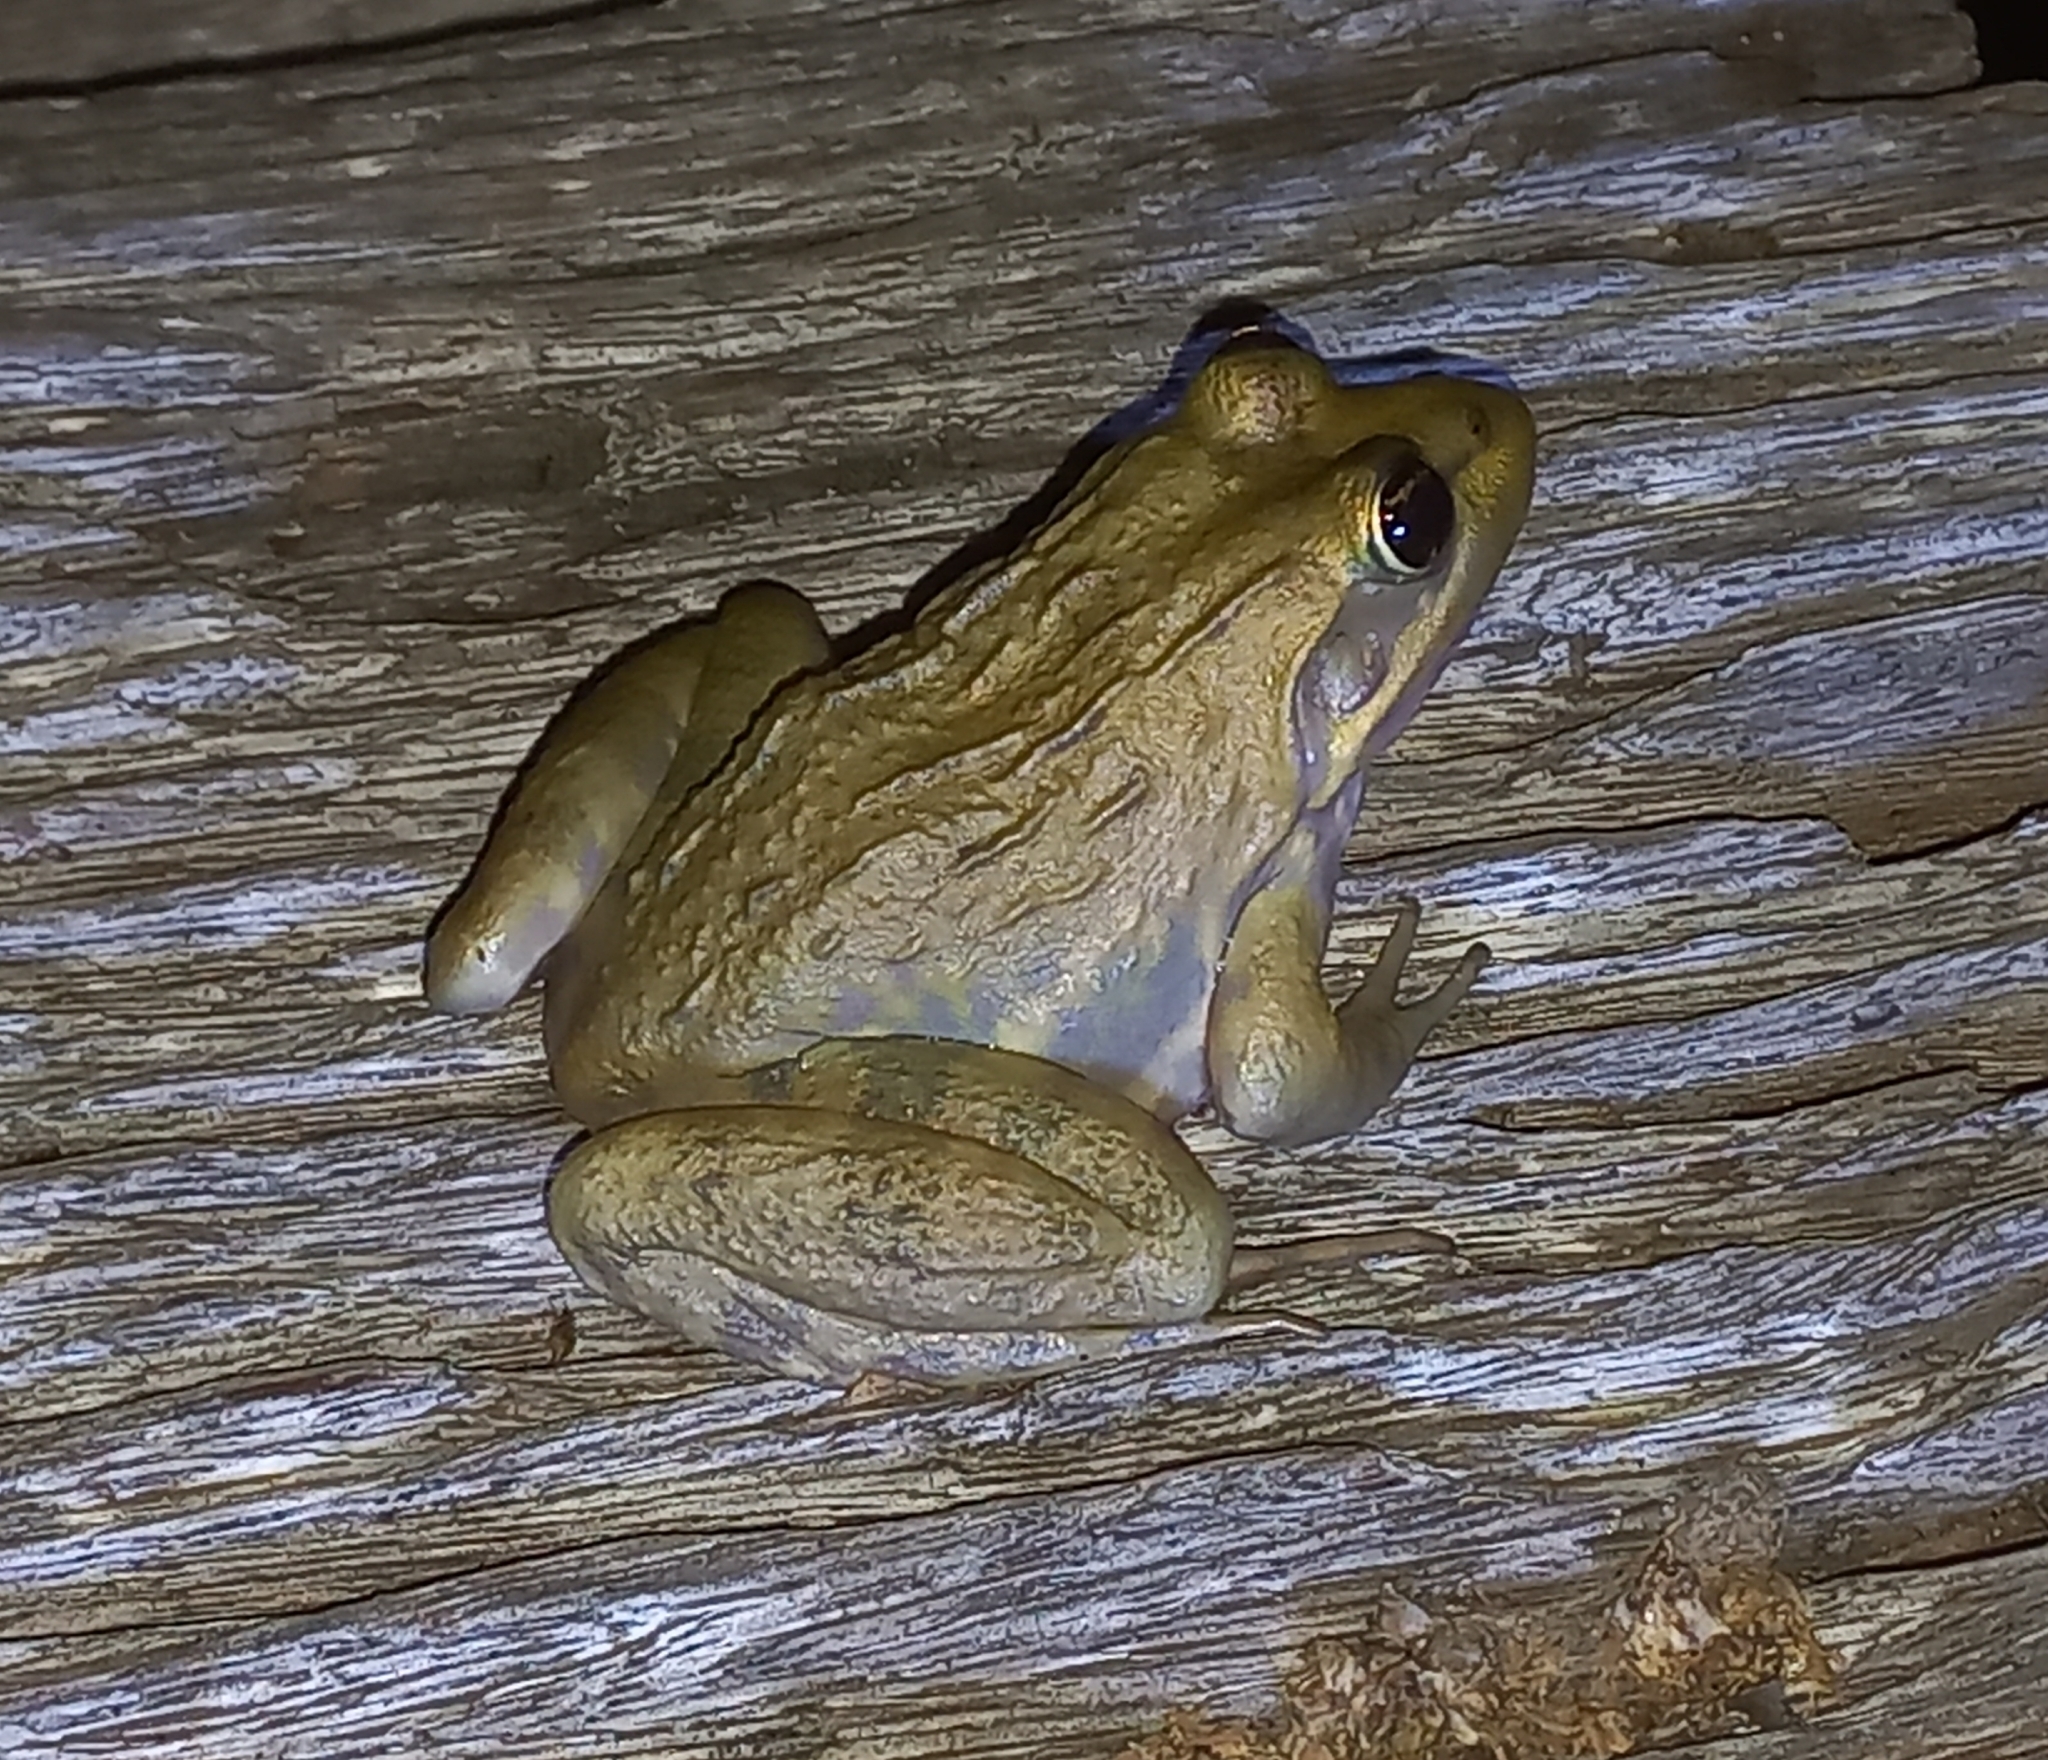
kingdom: Animalia
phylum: Chordata
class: Amphibia
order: Anura
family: Pyxicephalidae
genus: Amietia
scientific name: Amietia fuscigula
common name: Cape rana
